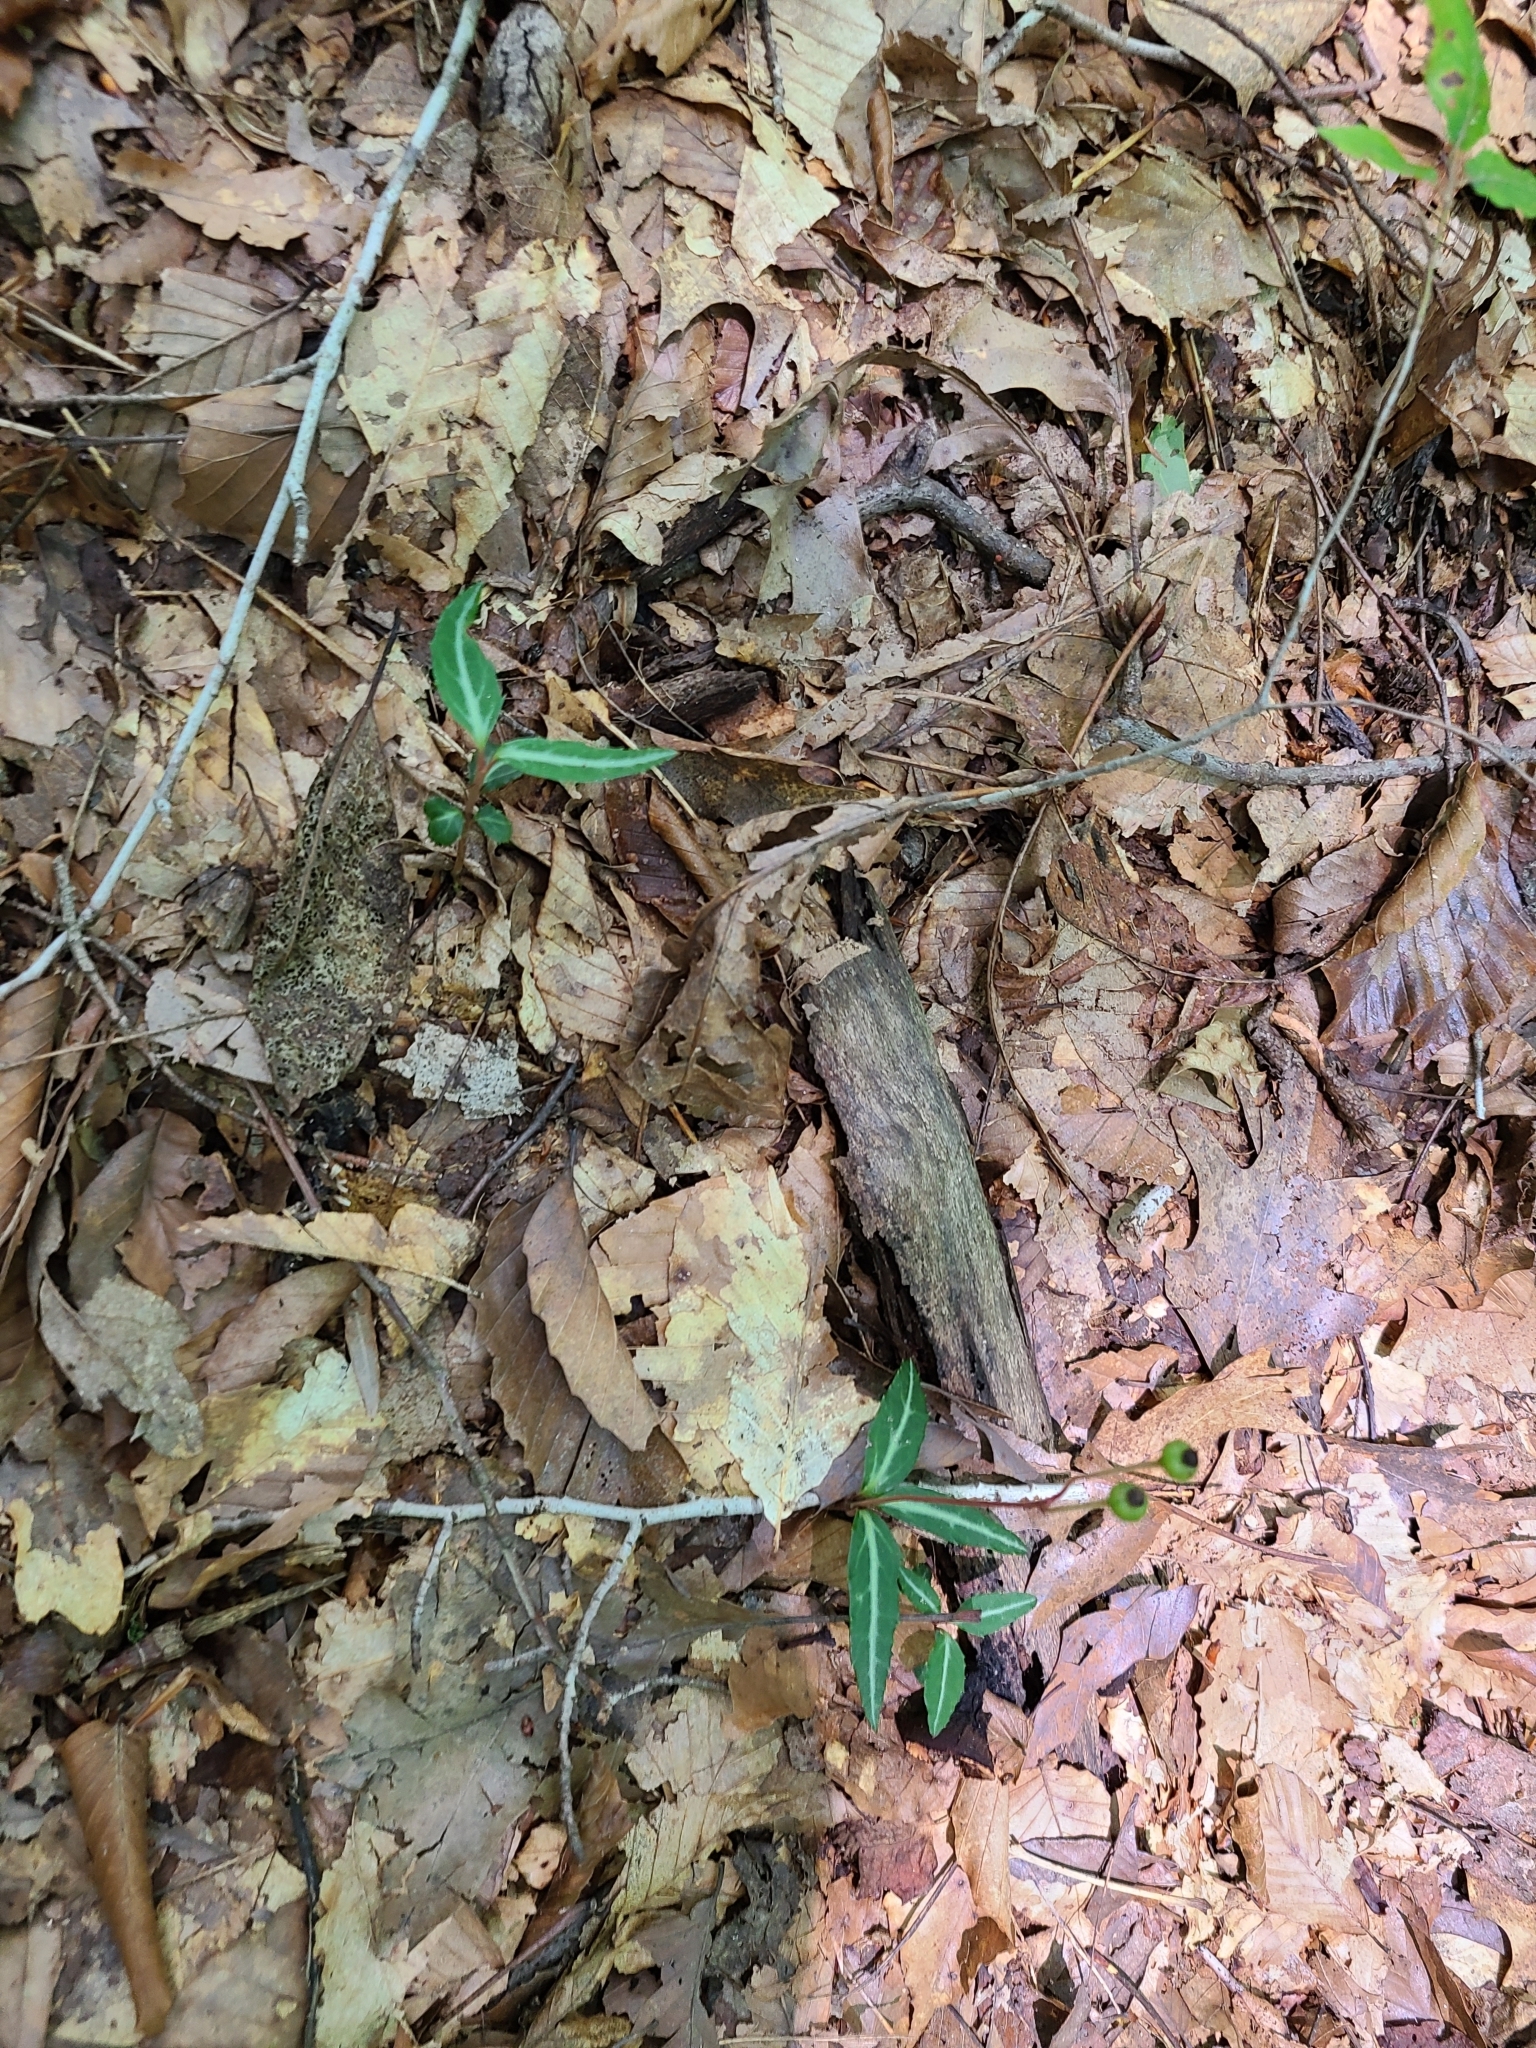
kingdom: Plantae
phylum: Tracheophyta
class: Magnoliopsida
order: Ericales
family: Ericaceae
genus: Chimaphila
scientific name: Chimaphila maculata
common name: Spotted pipsissewa
